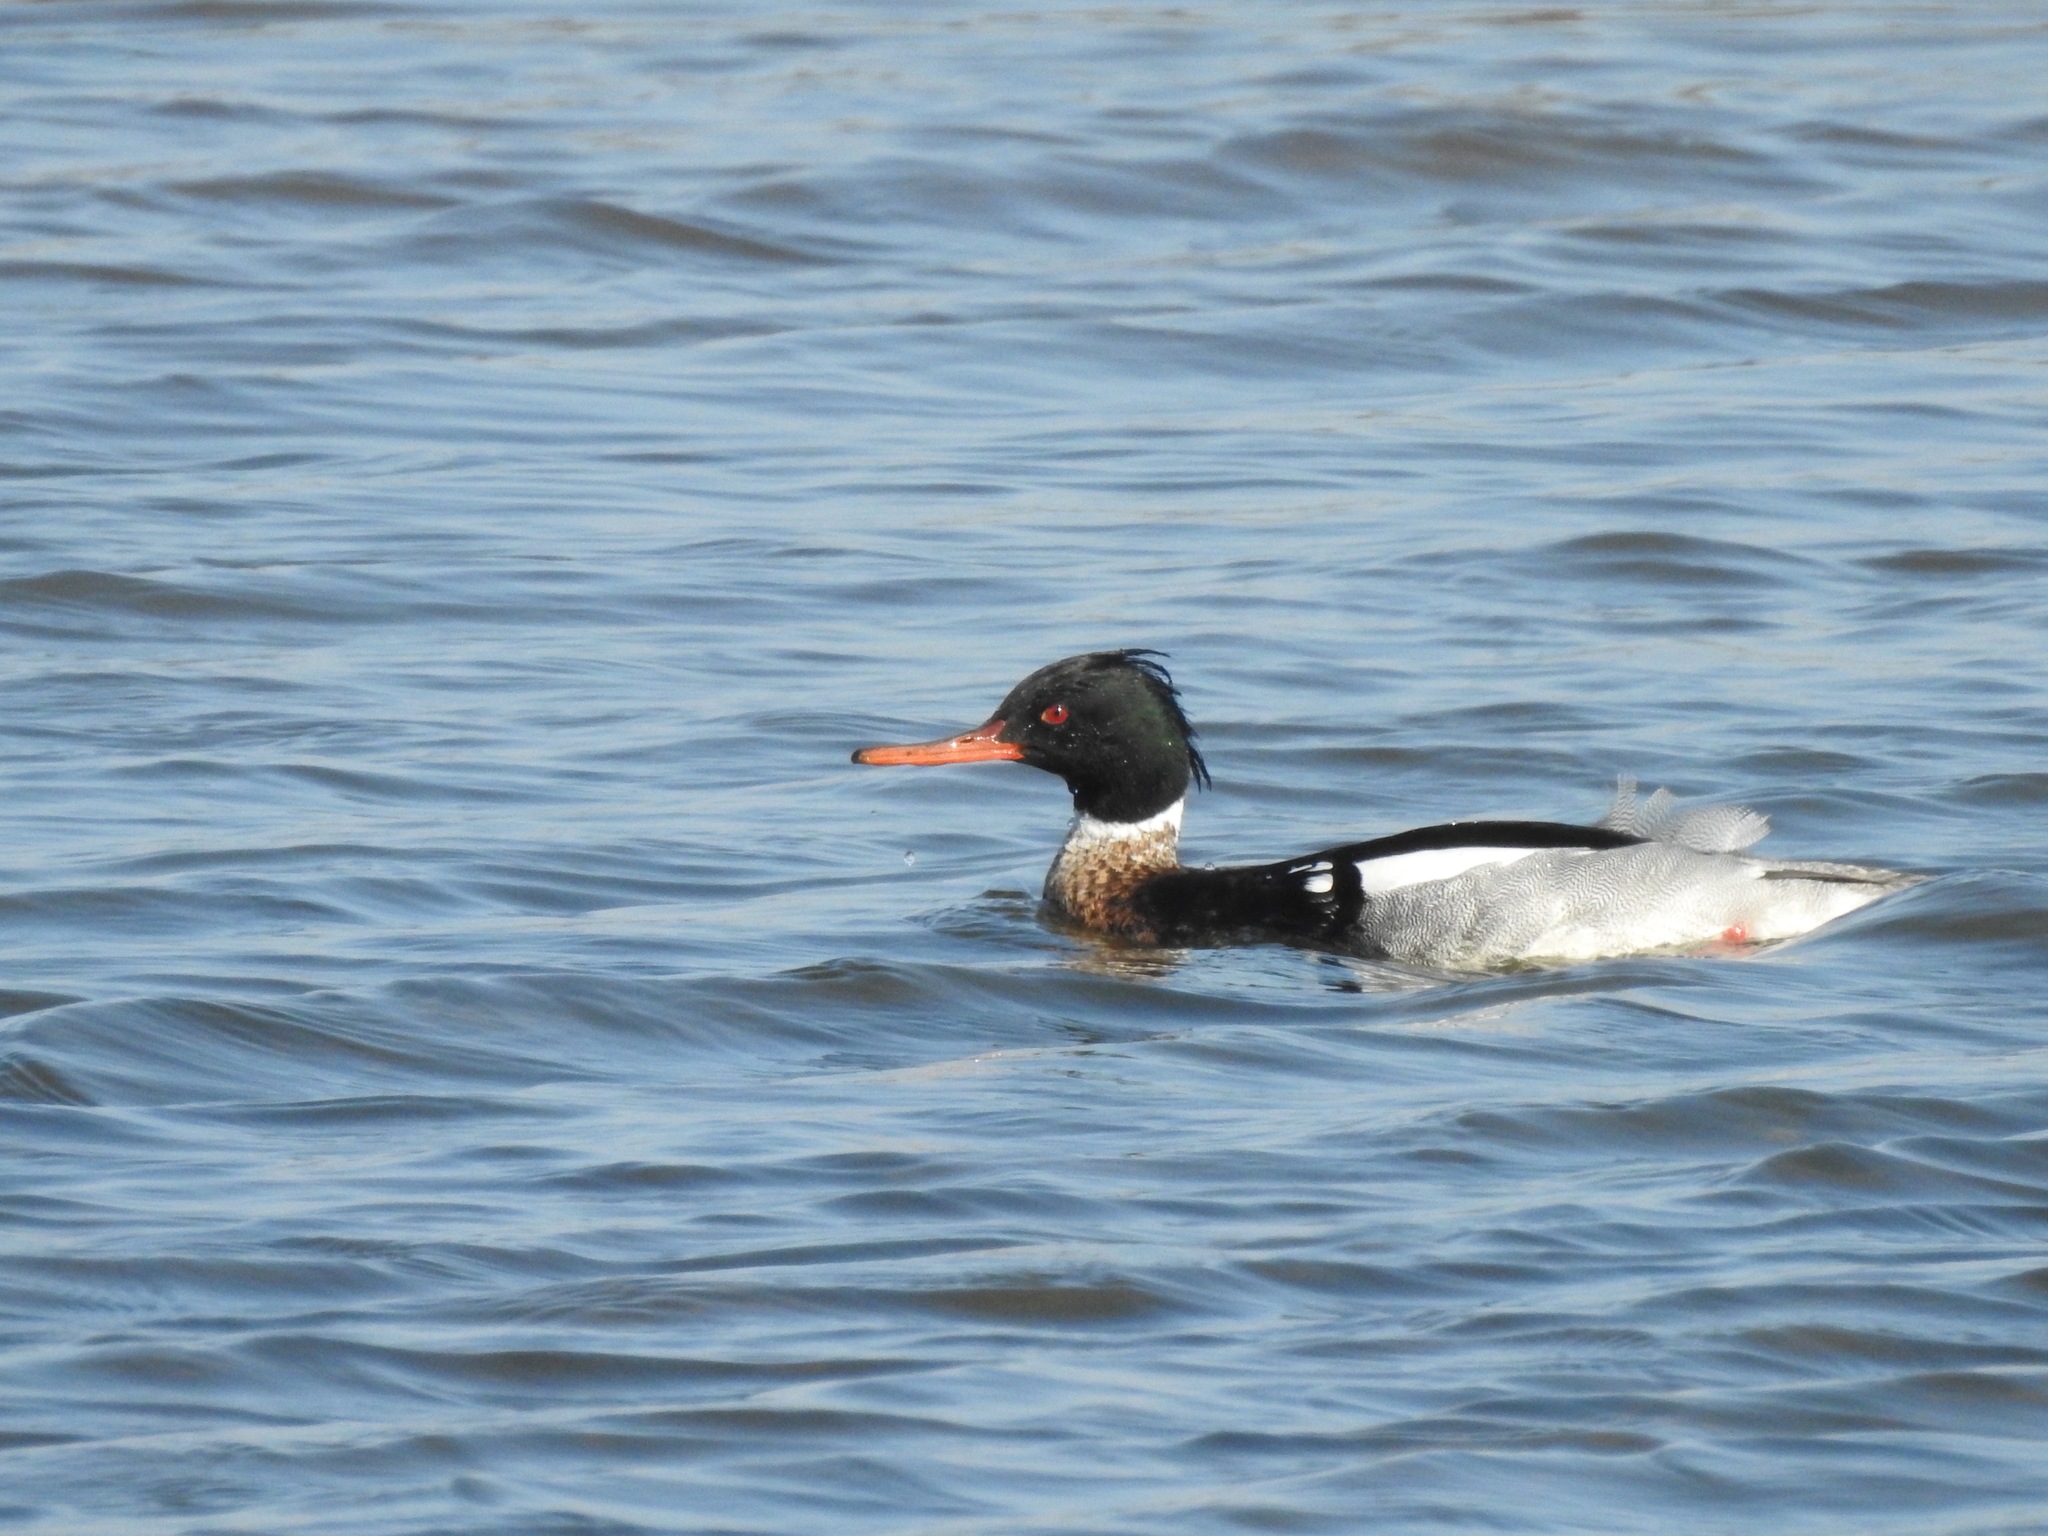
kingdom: Animalia
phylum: Chordata
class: Aves
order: Anseriformes
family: Anatidae
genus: Mergus
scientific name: Mergus serrator
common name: Red-breasted merganser
